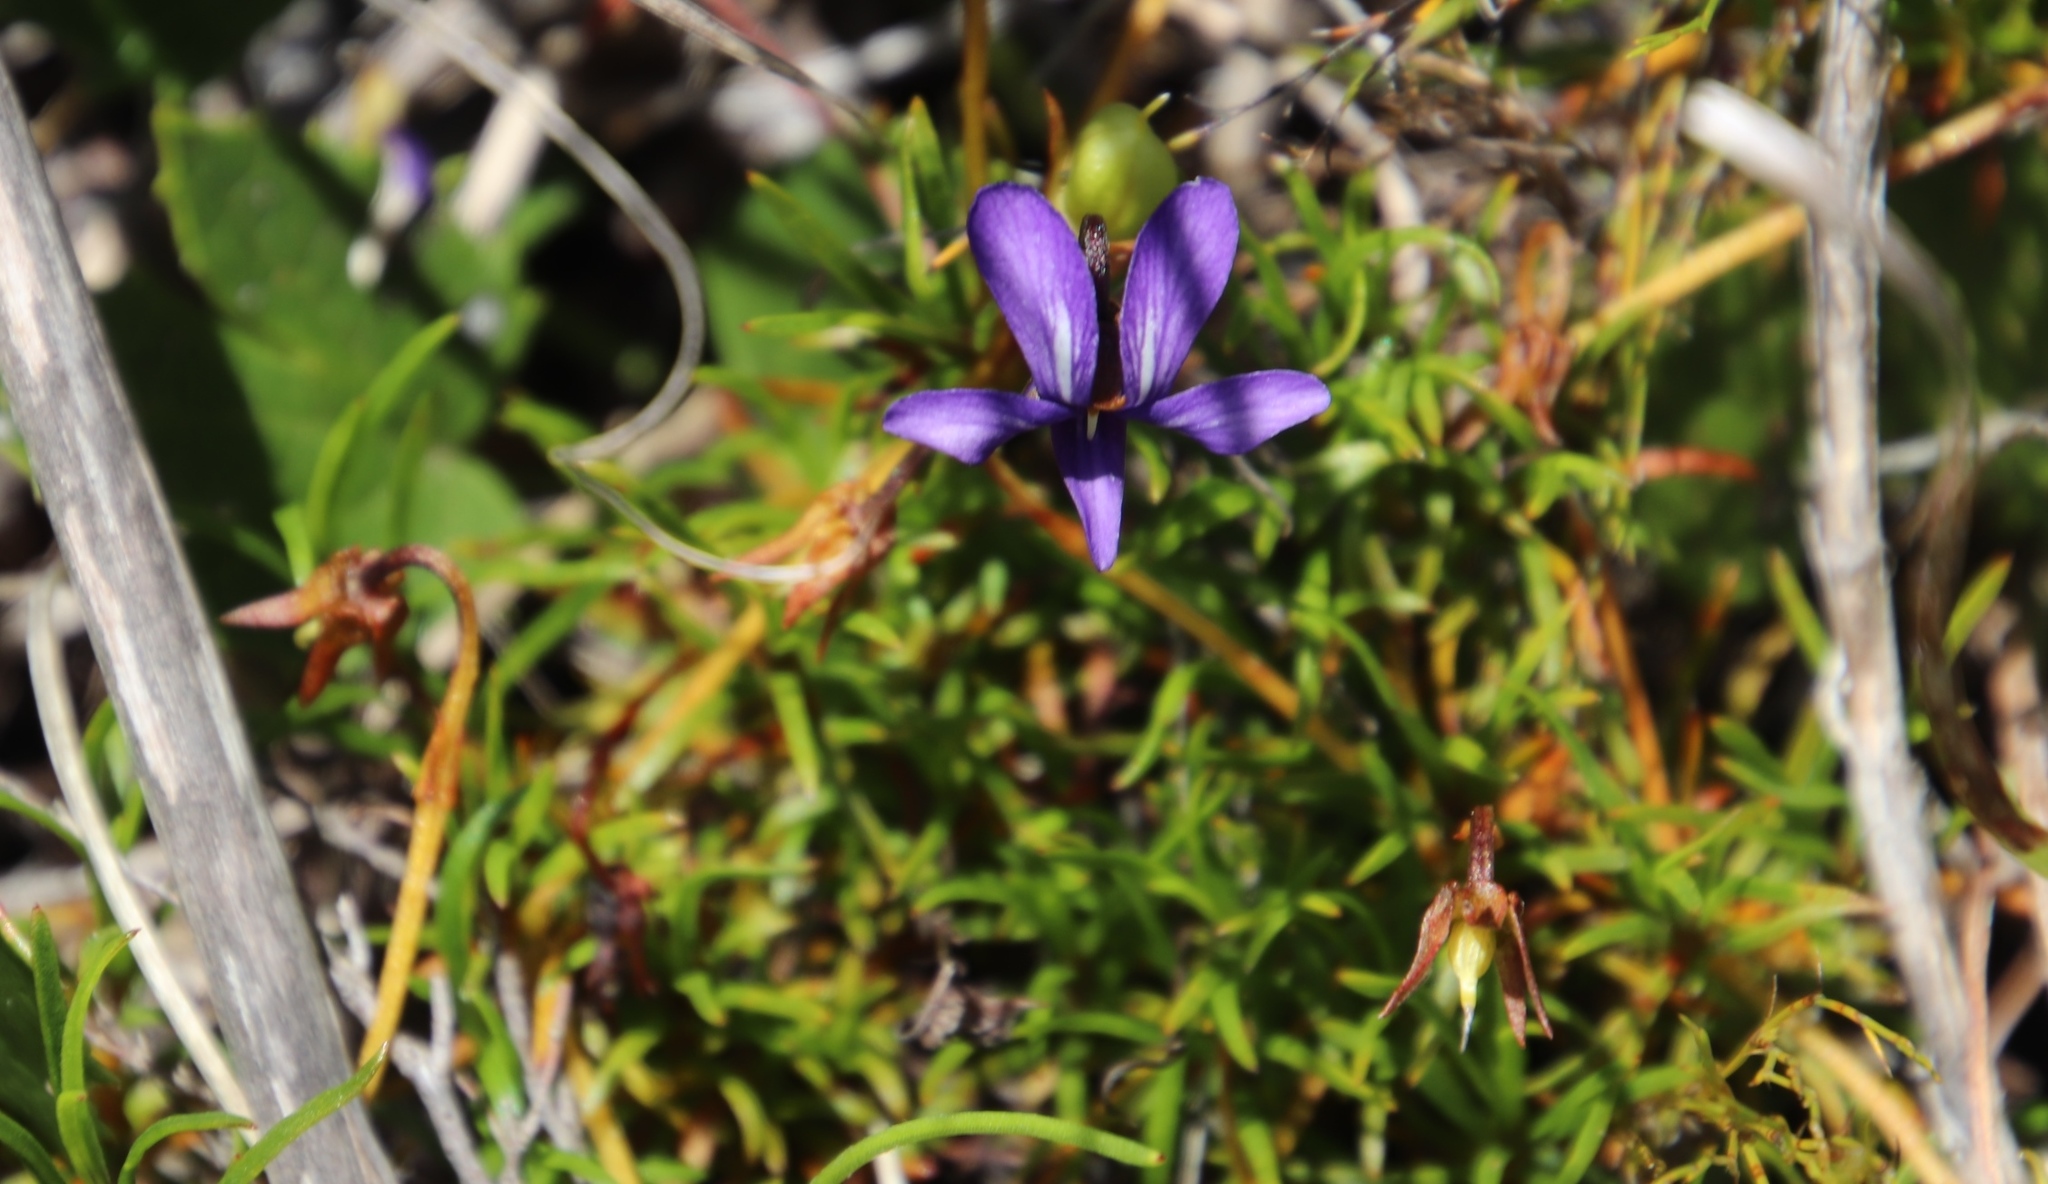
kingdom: Plantae
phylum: Tracheophyta
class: Magnoliopsida
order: Malpighiales
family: Violaceae
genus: Viola
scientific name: Viola decumbens
